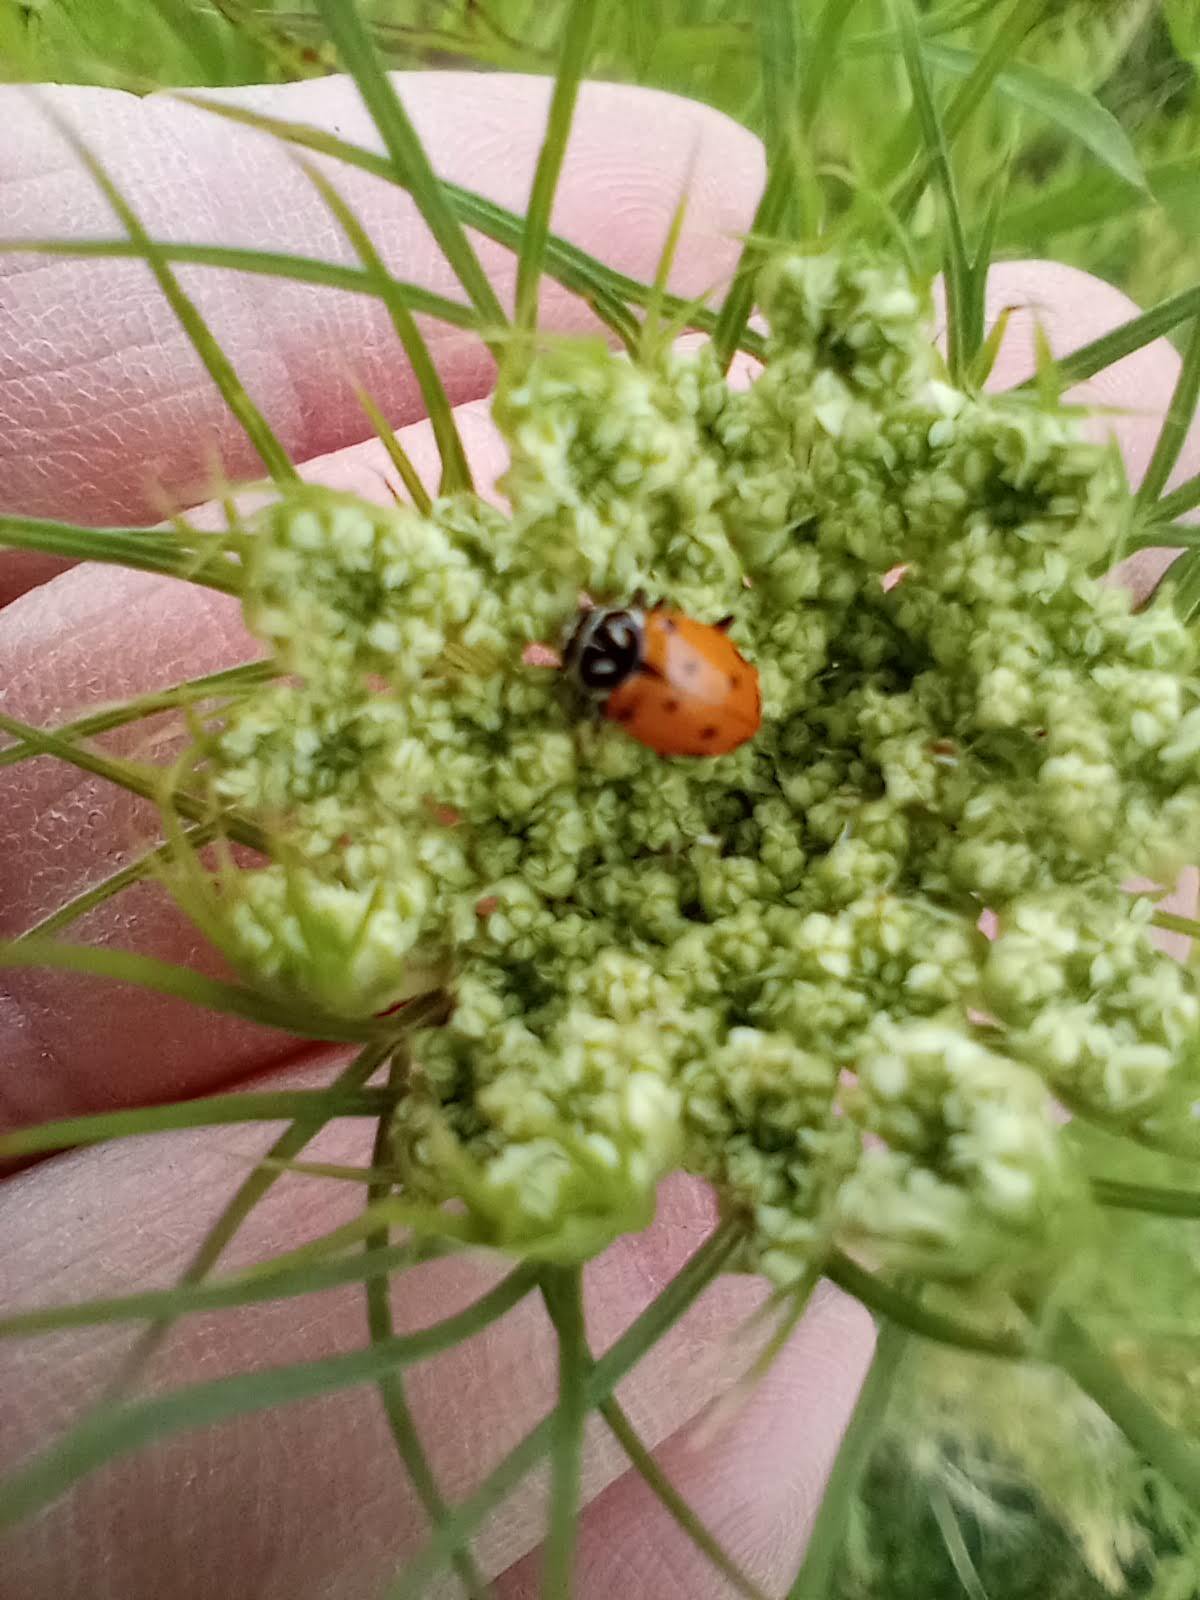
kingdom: Animalia
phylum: Arthropoda
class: Insecta
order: Coleoptera
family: Coccinellidae
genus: Hippodamia
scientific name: Hippodamia convergens
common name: Convergent lady beetle
